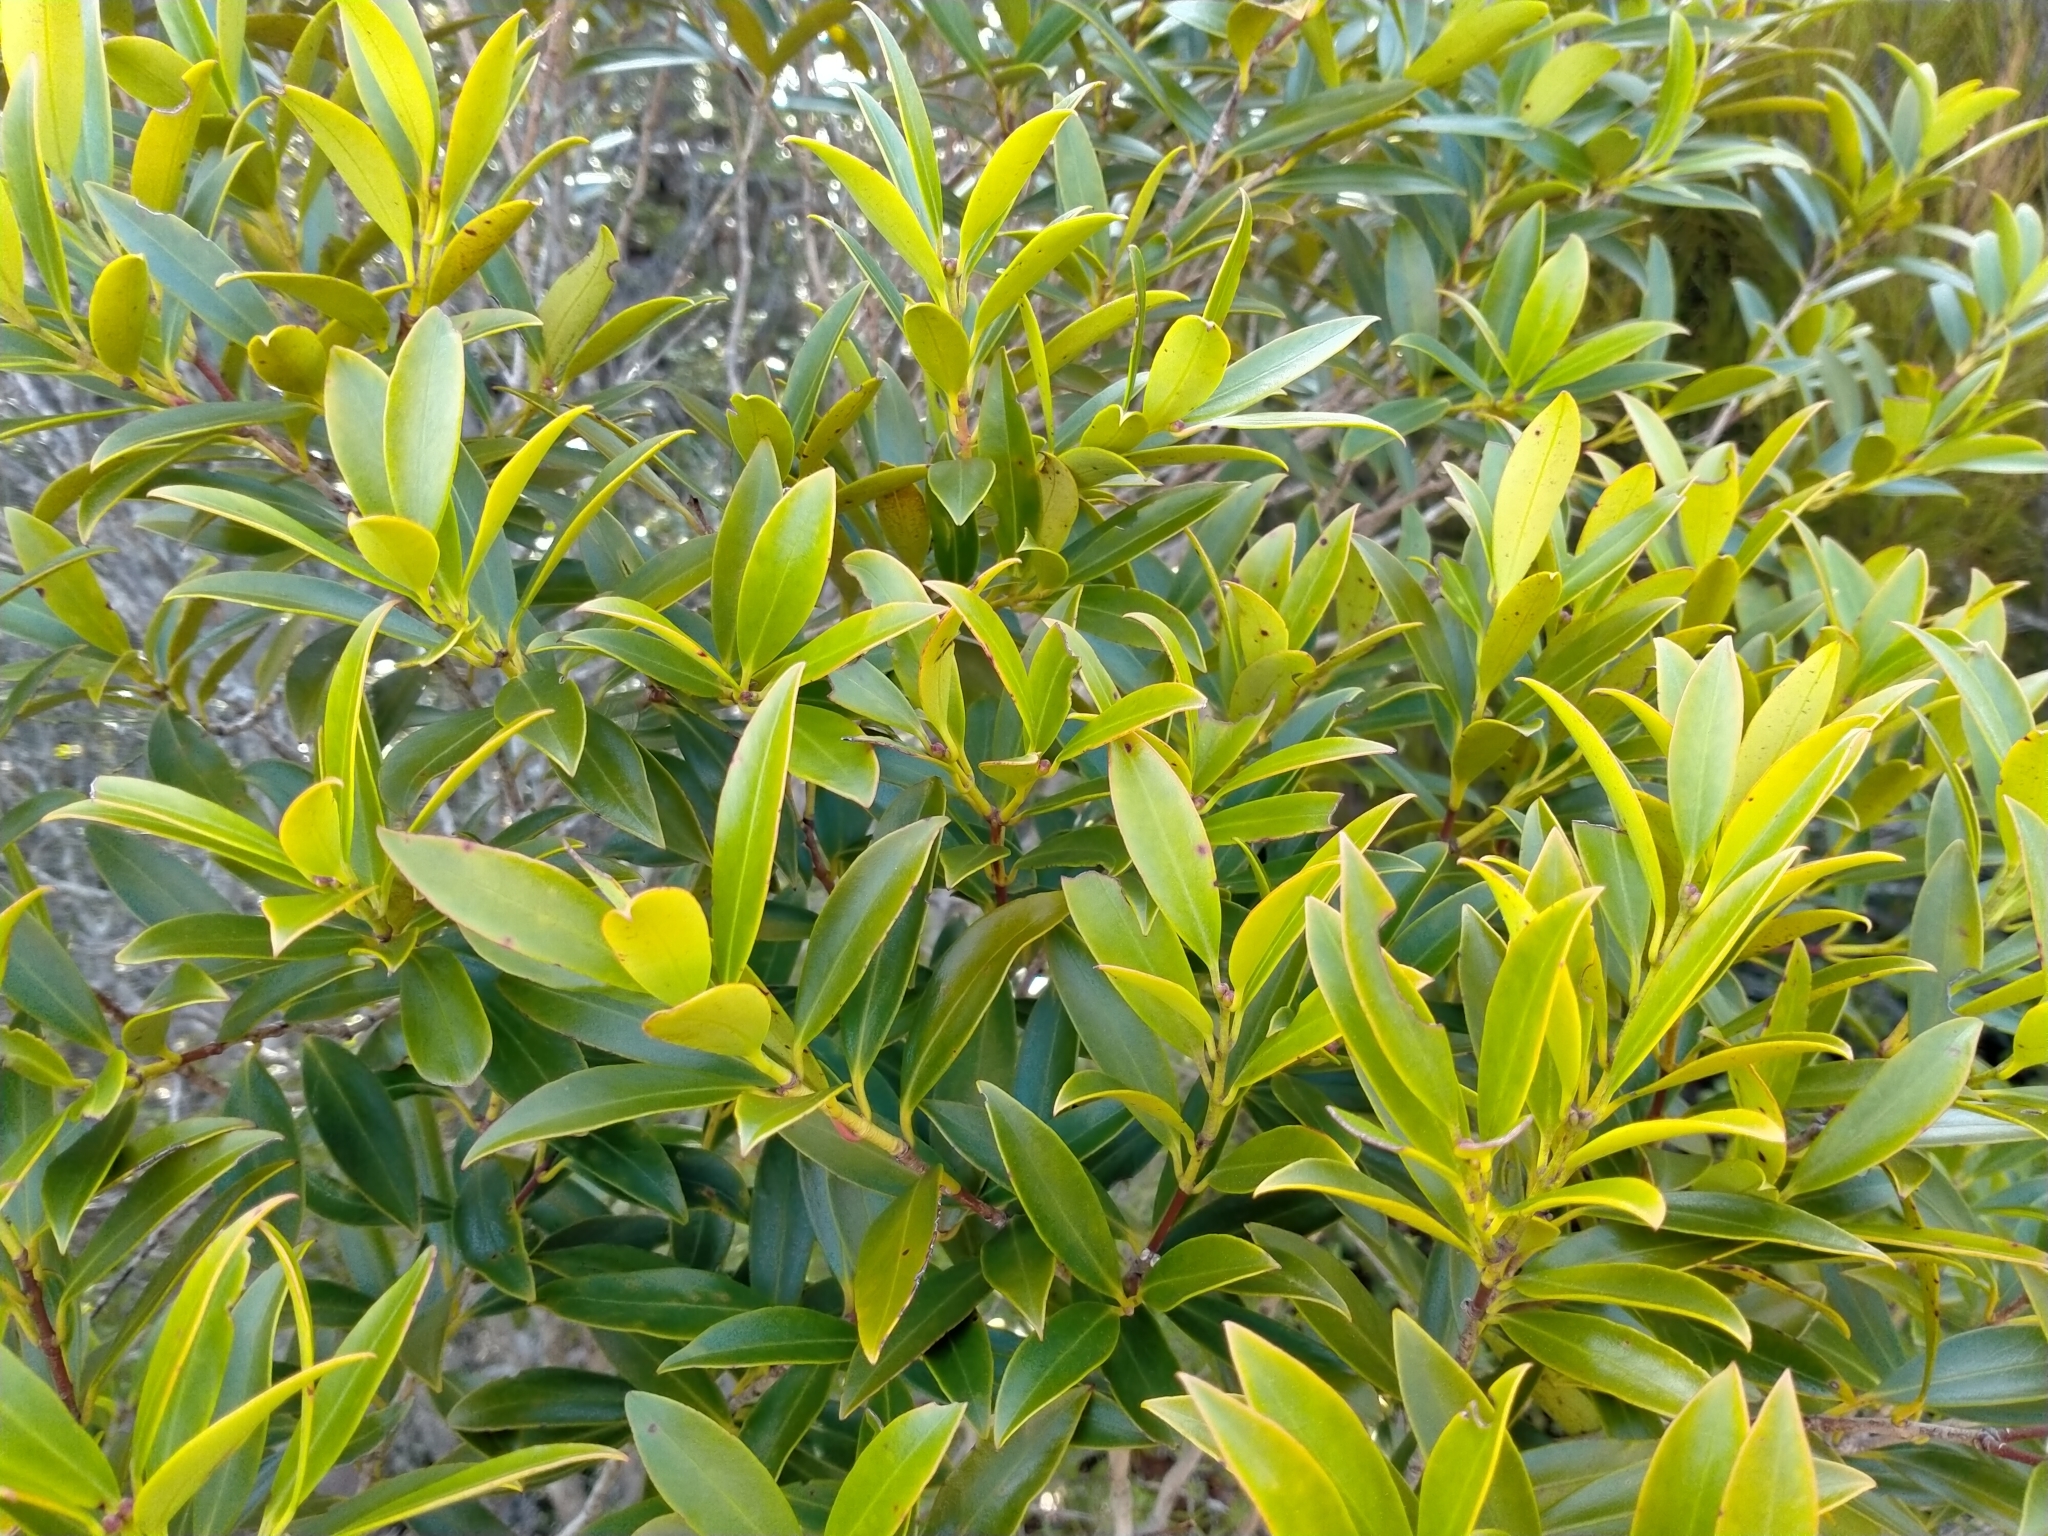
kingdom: Plantae
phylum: Tracheophyta
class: Magnoliopsida
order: Myrtales
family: Myrtaceae
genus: Metrosideros
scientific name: Metrosideros umbellata
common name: Southern rata
